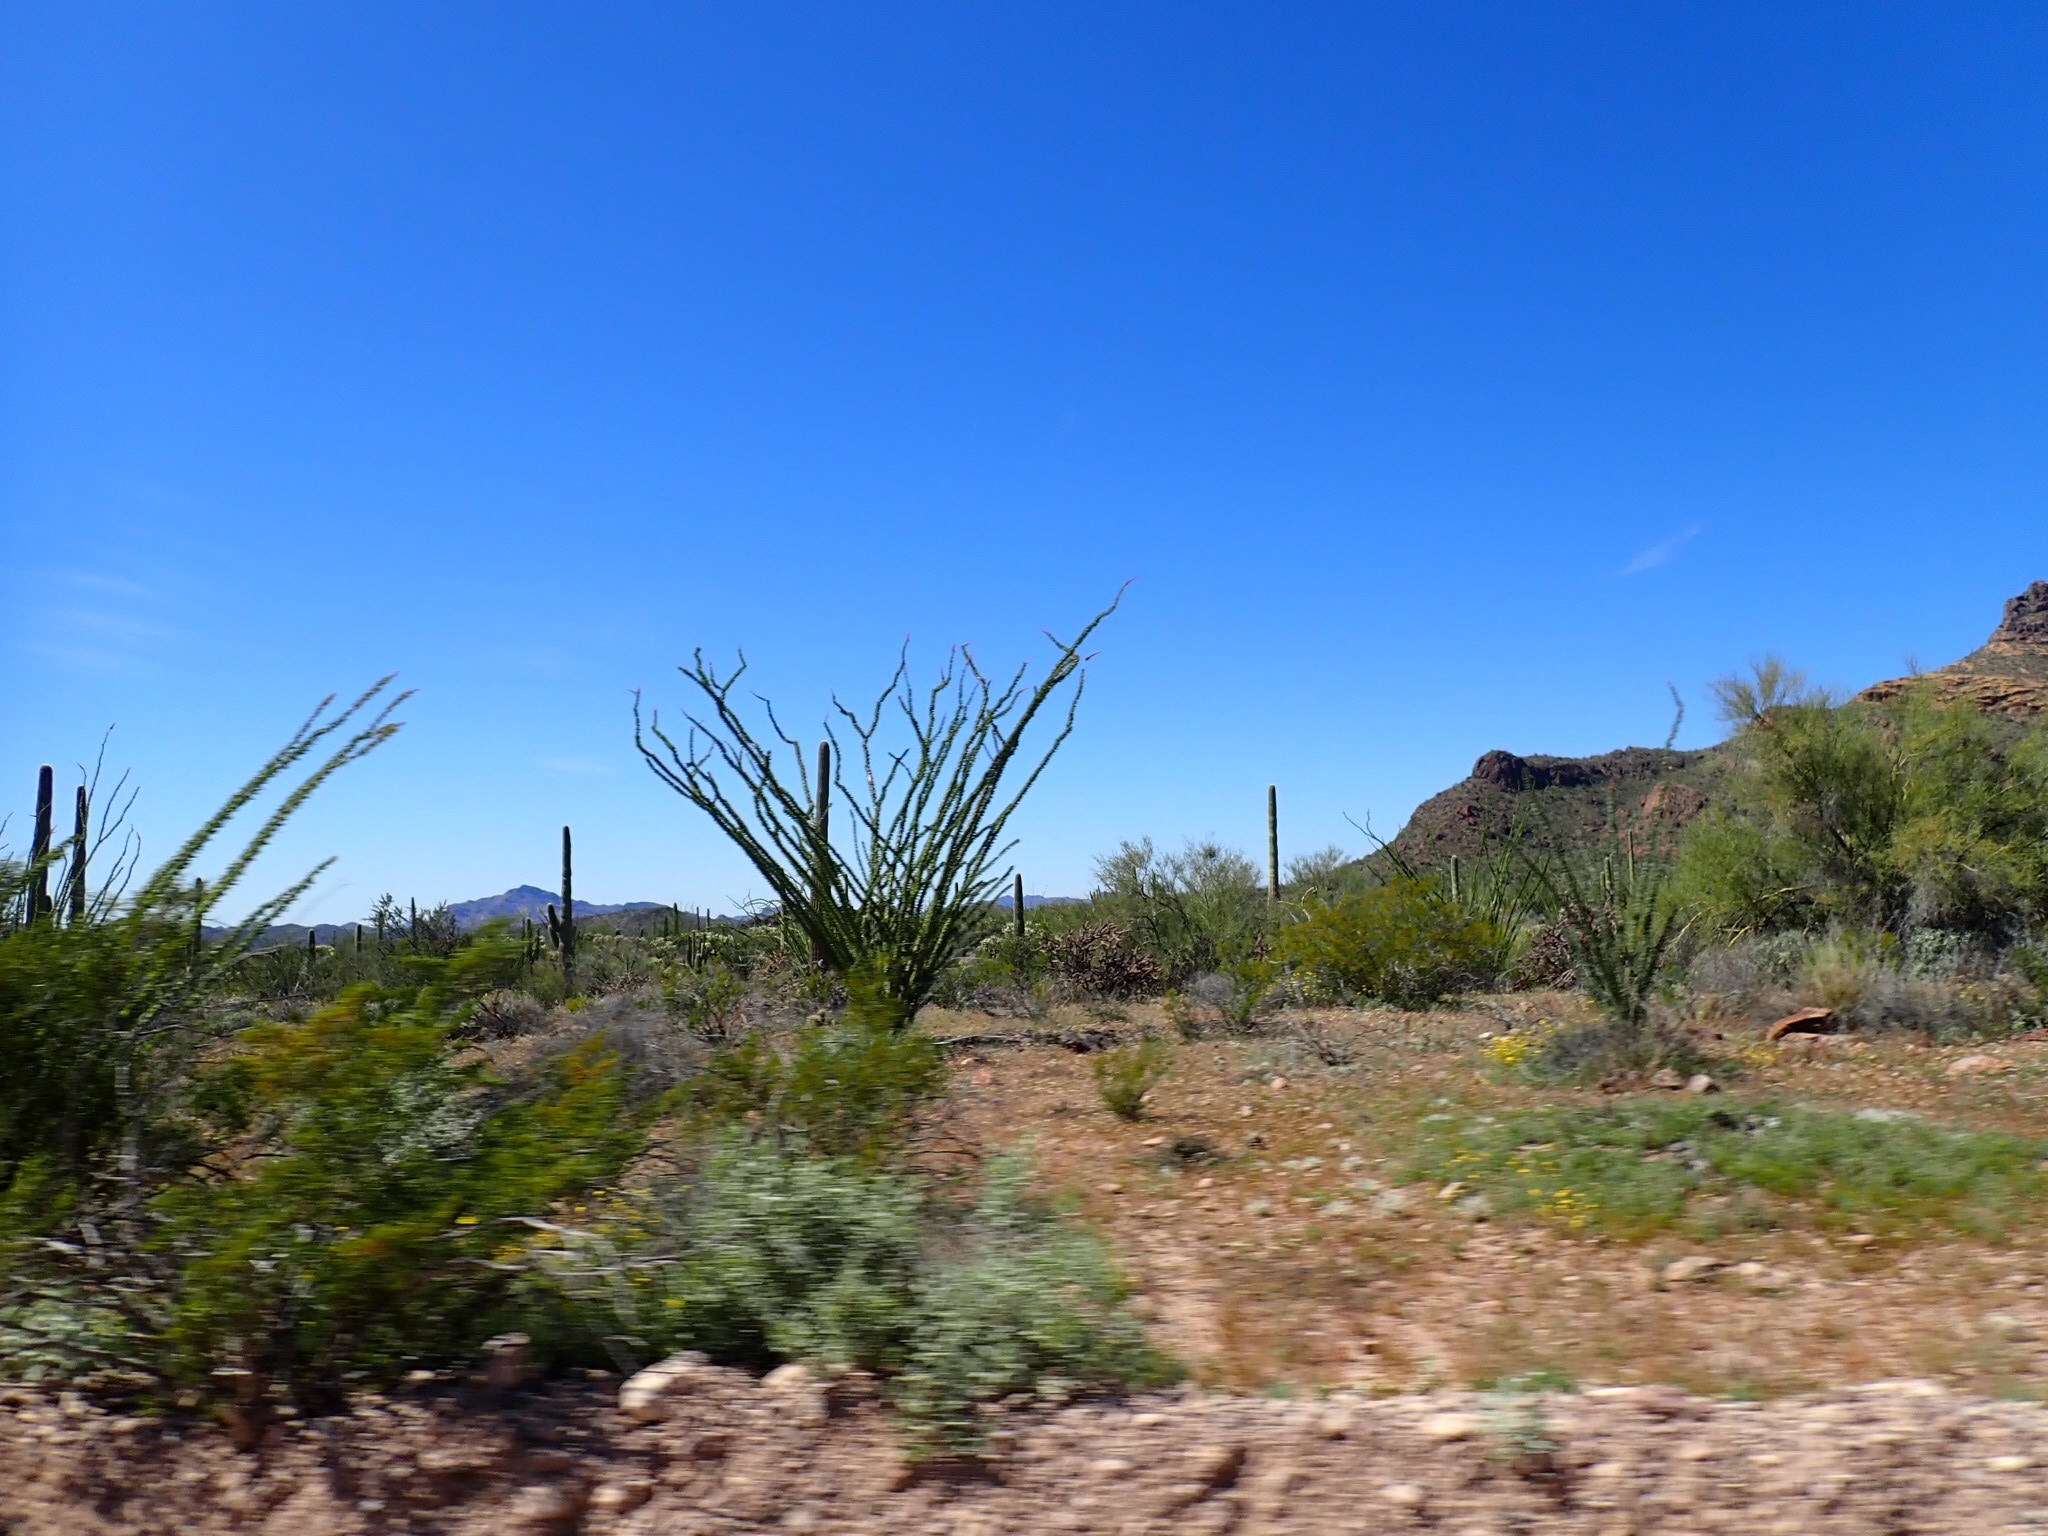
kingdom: Plantae
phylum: Tracheophyta
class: Magnoliopsida
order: Ericales
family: Fouquieriaceae
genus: Fouquieria
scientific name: Fouquieria splendens
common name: Vine-cactus
